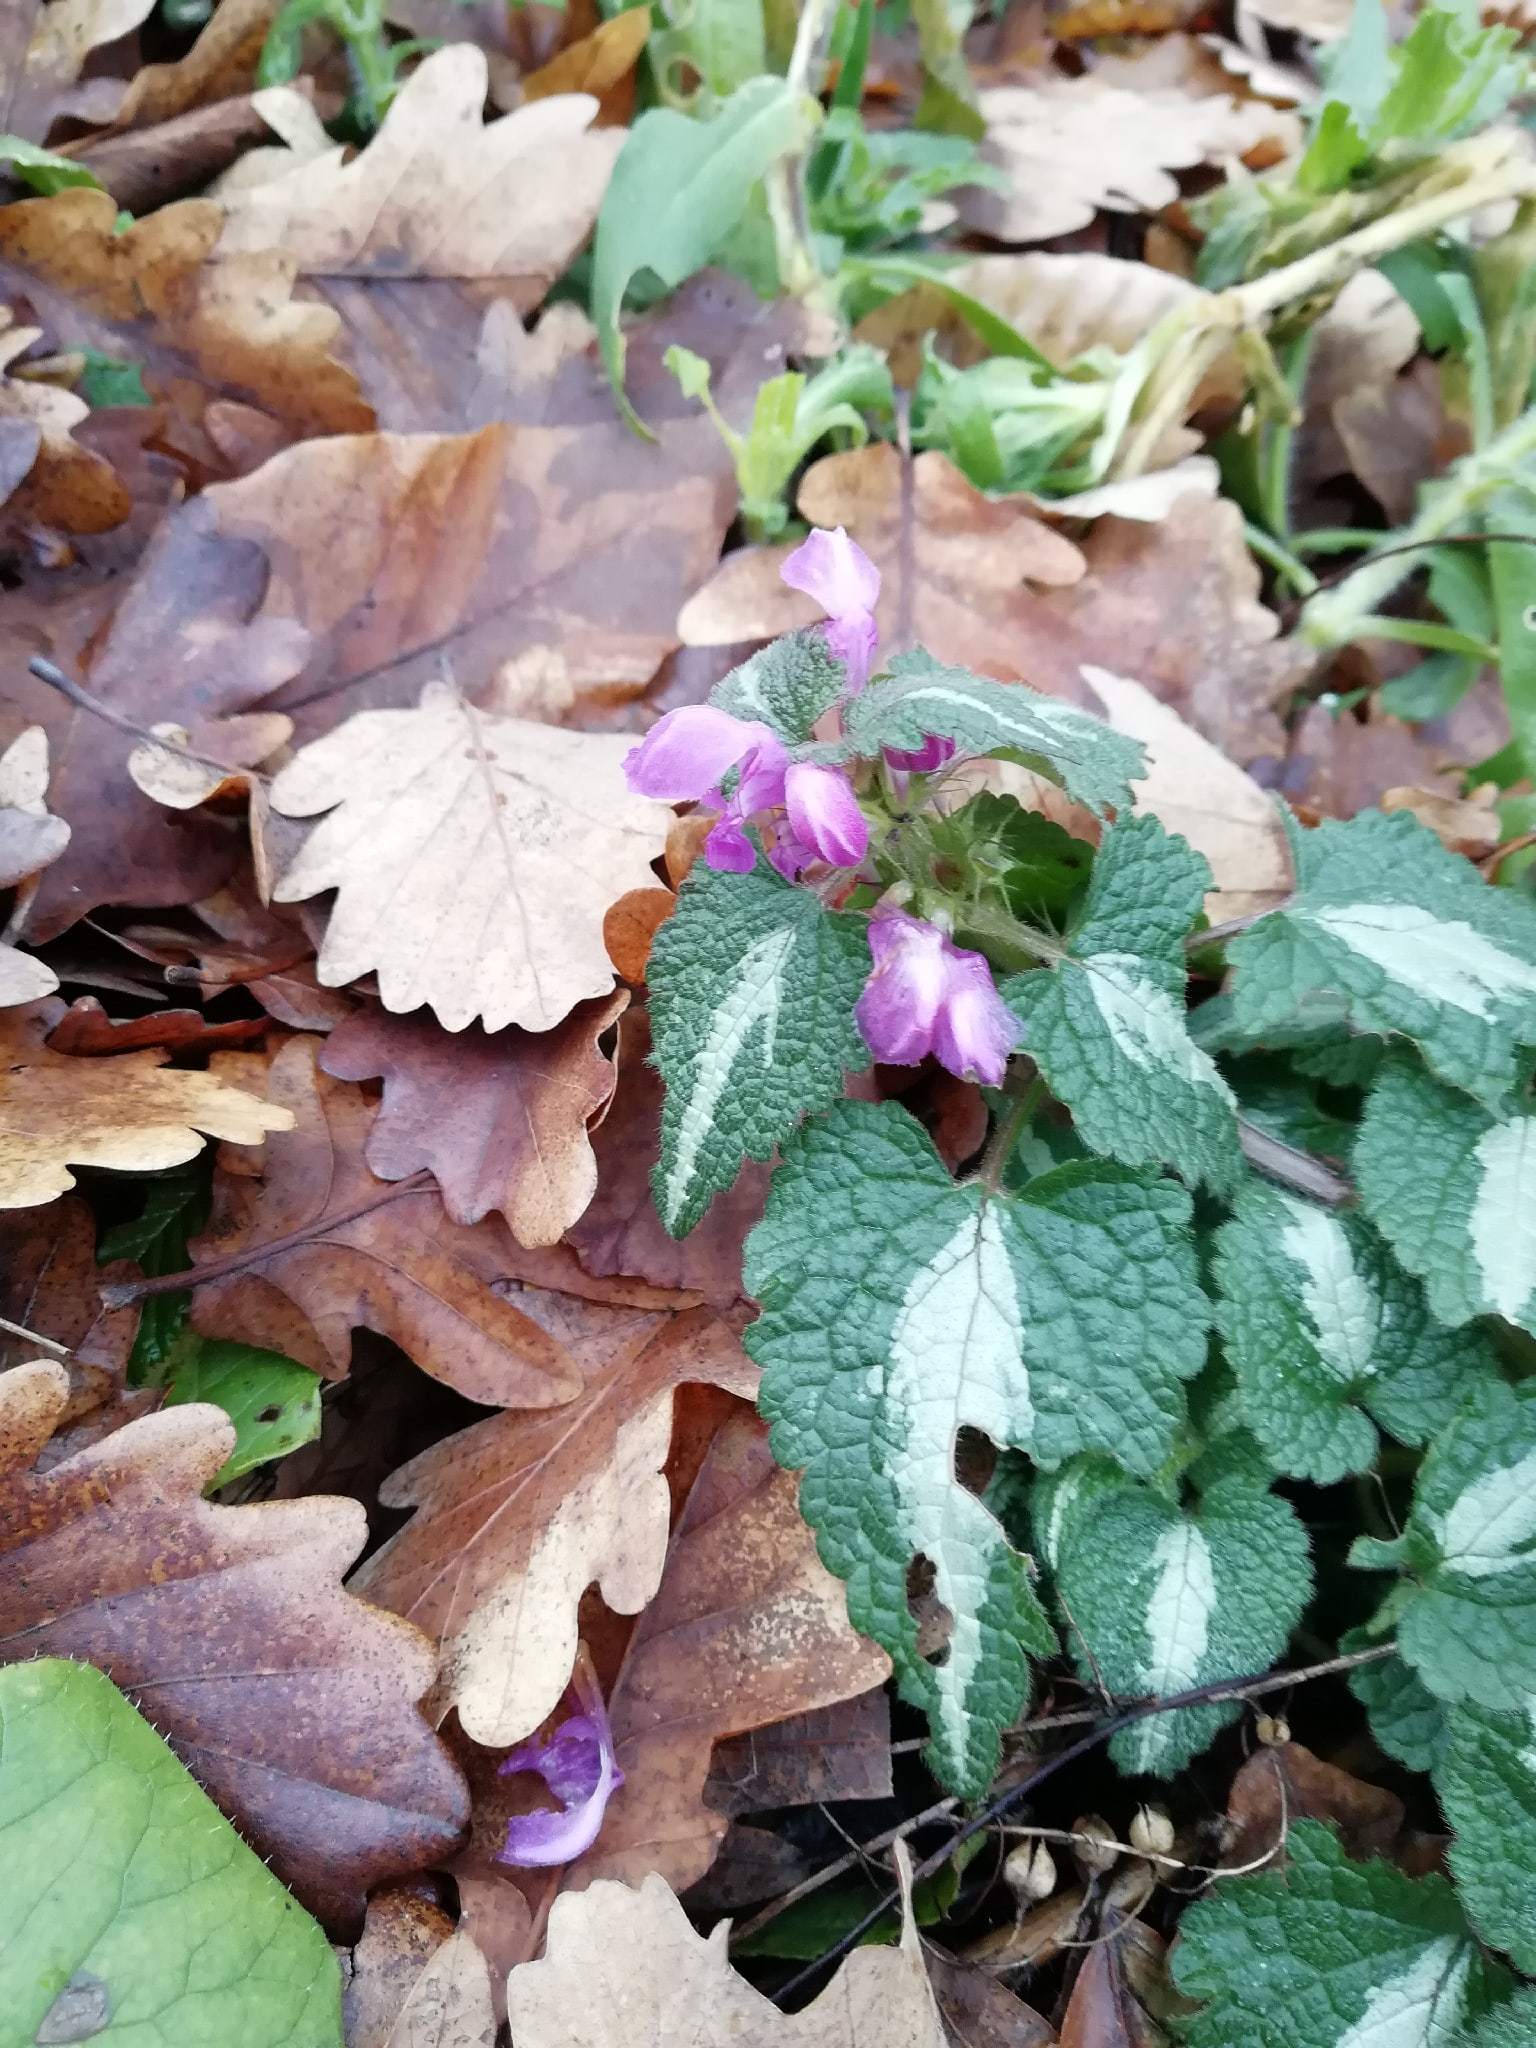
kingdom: Plantae
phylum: Tracheophyta
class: Magnoliopsida
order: Lamiales
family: Lamiaceae
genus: Lamium
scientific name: Lamium maculatum
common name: Spotted dead-nettle
